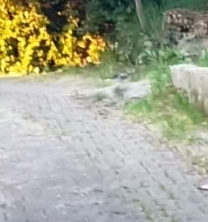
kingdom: Animalia
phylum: Chordata
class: Aves
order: Passeriformes
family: Corvidae
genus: Garrulus
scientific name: Garrulus glandarius
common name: Eurasian jay
